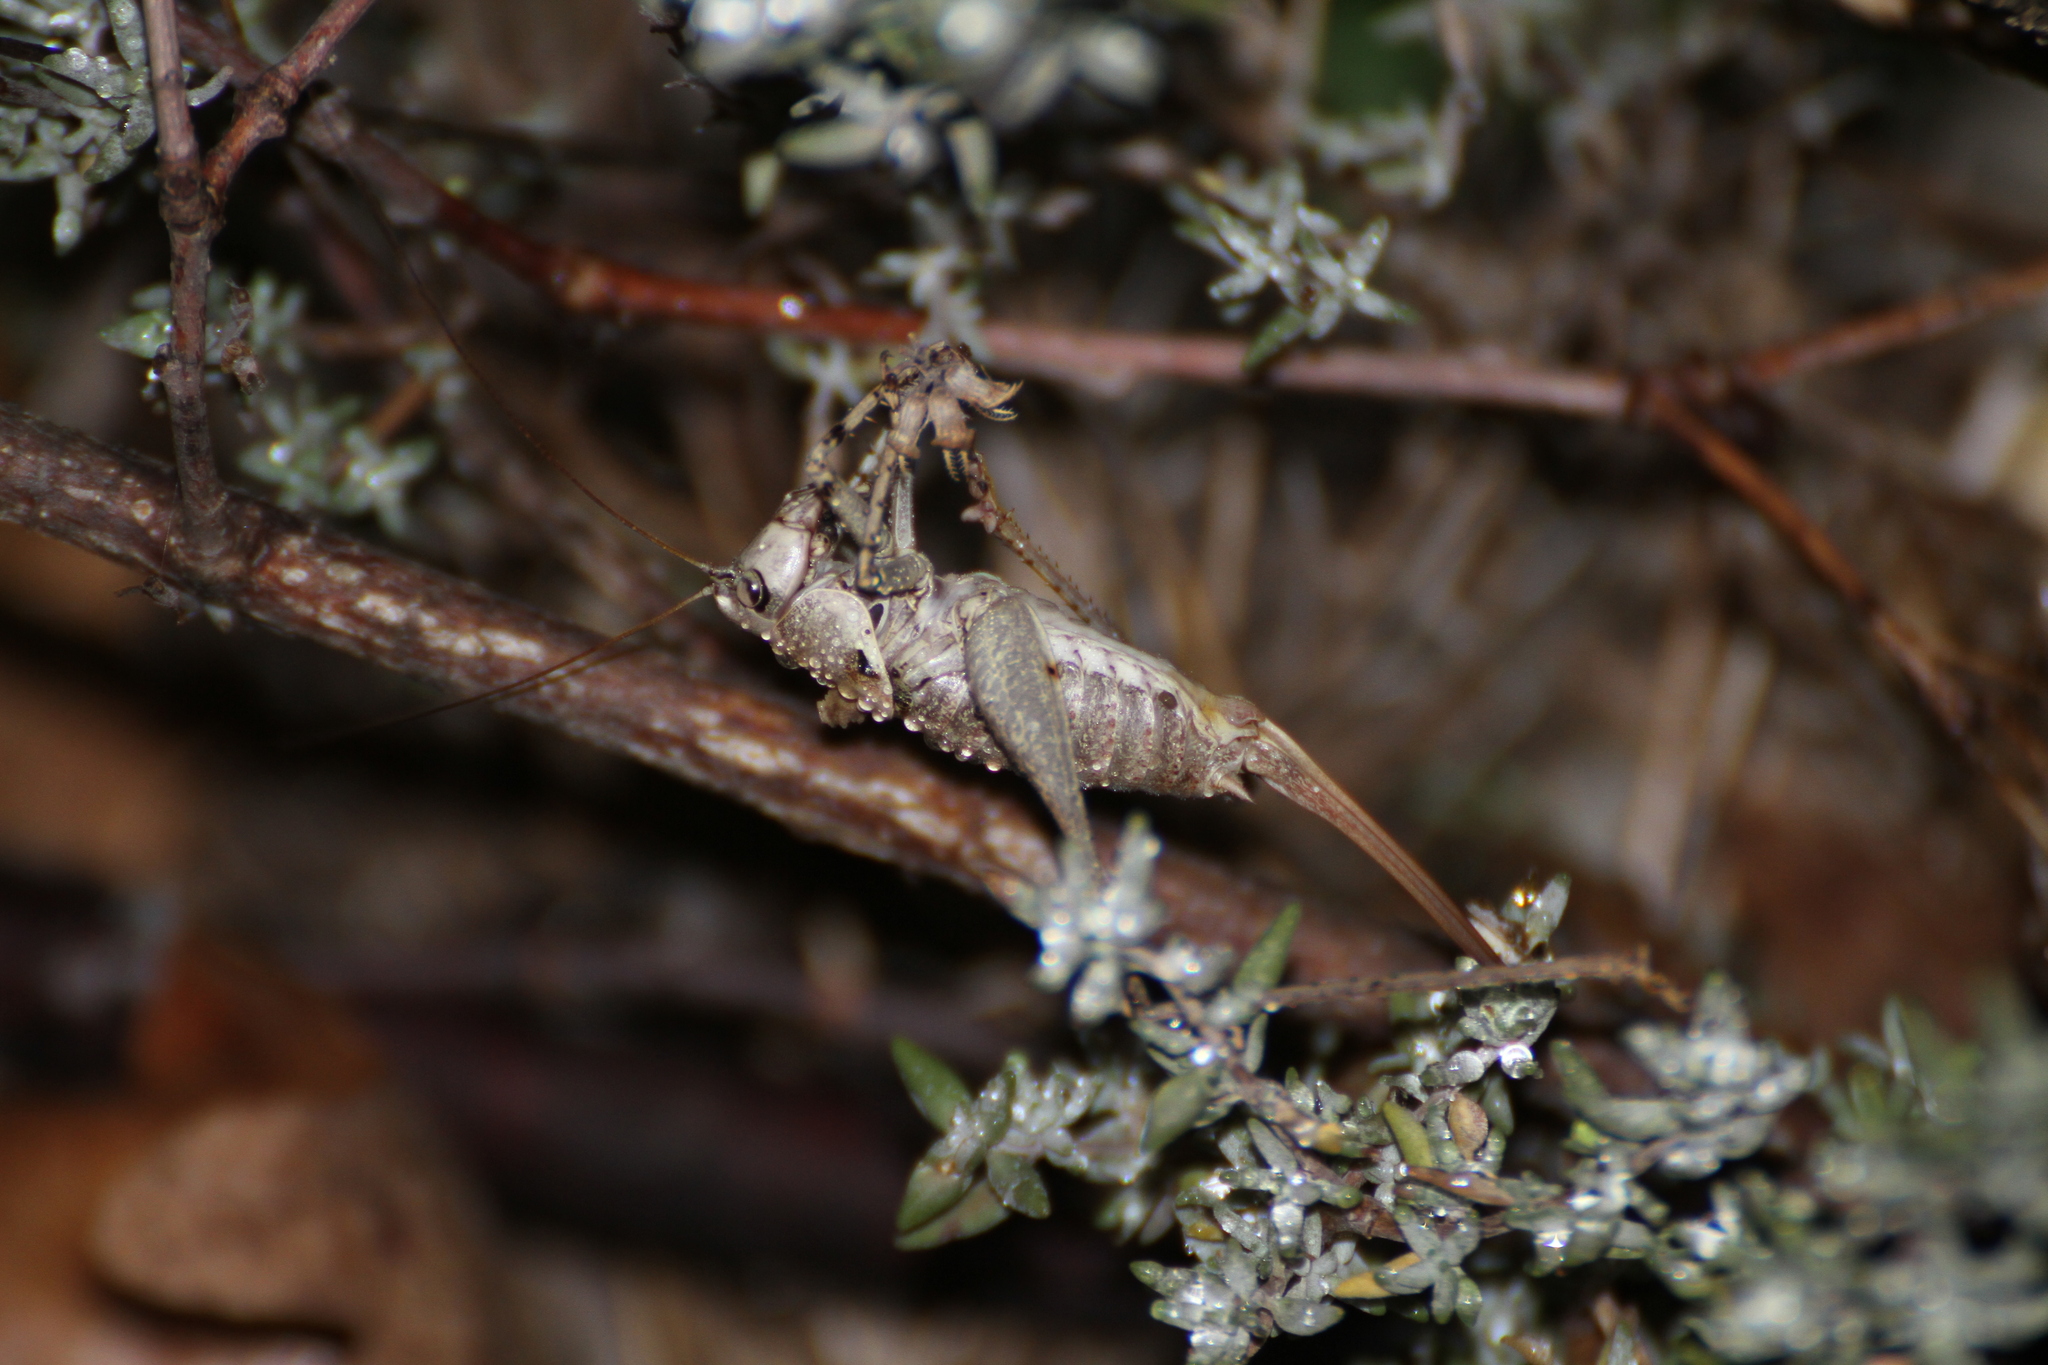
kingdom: Animalia
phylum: Arthropoda
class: Insecta
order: Orthoptera
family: Tettigoniidae
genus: Antaxius
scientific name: Antaxius pedestris
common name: Common mountain bush-cricket
